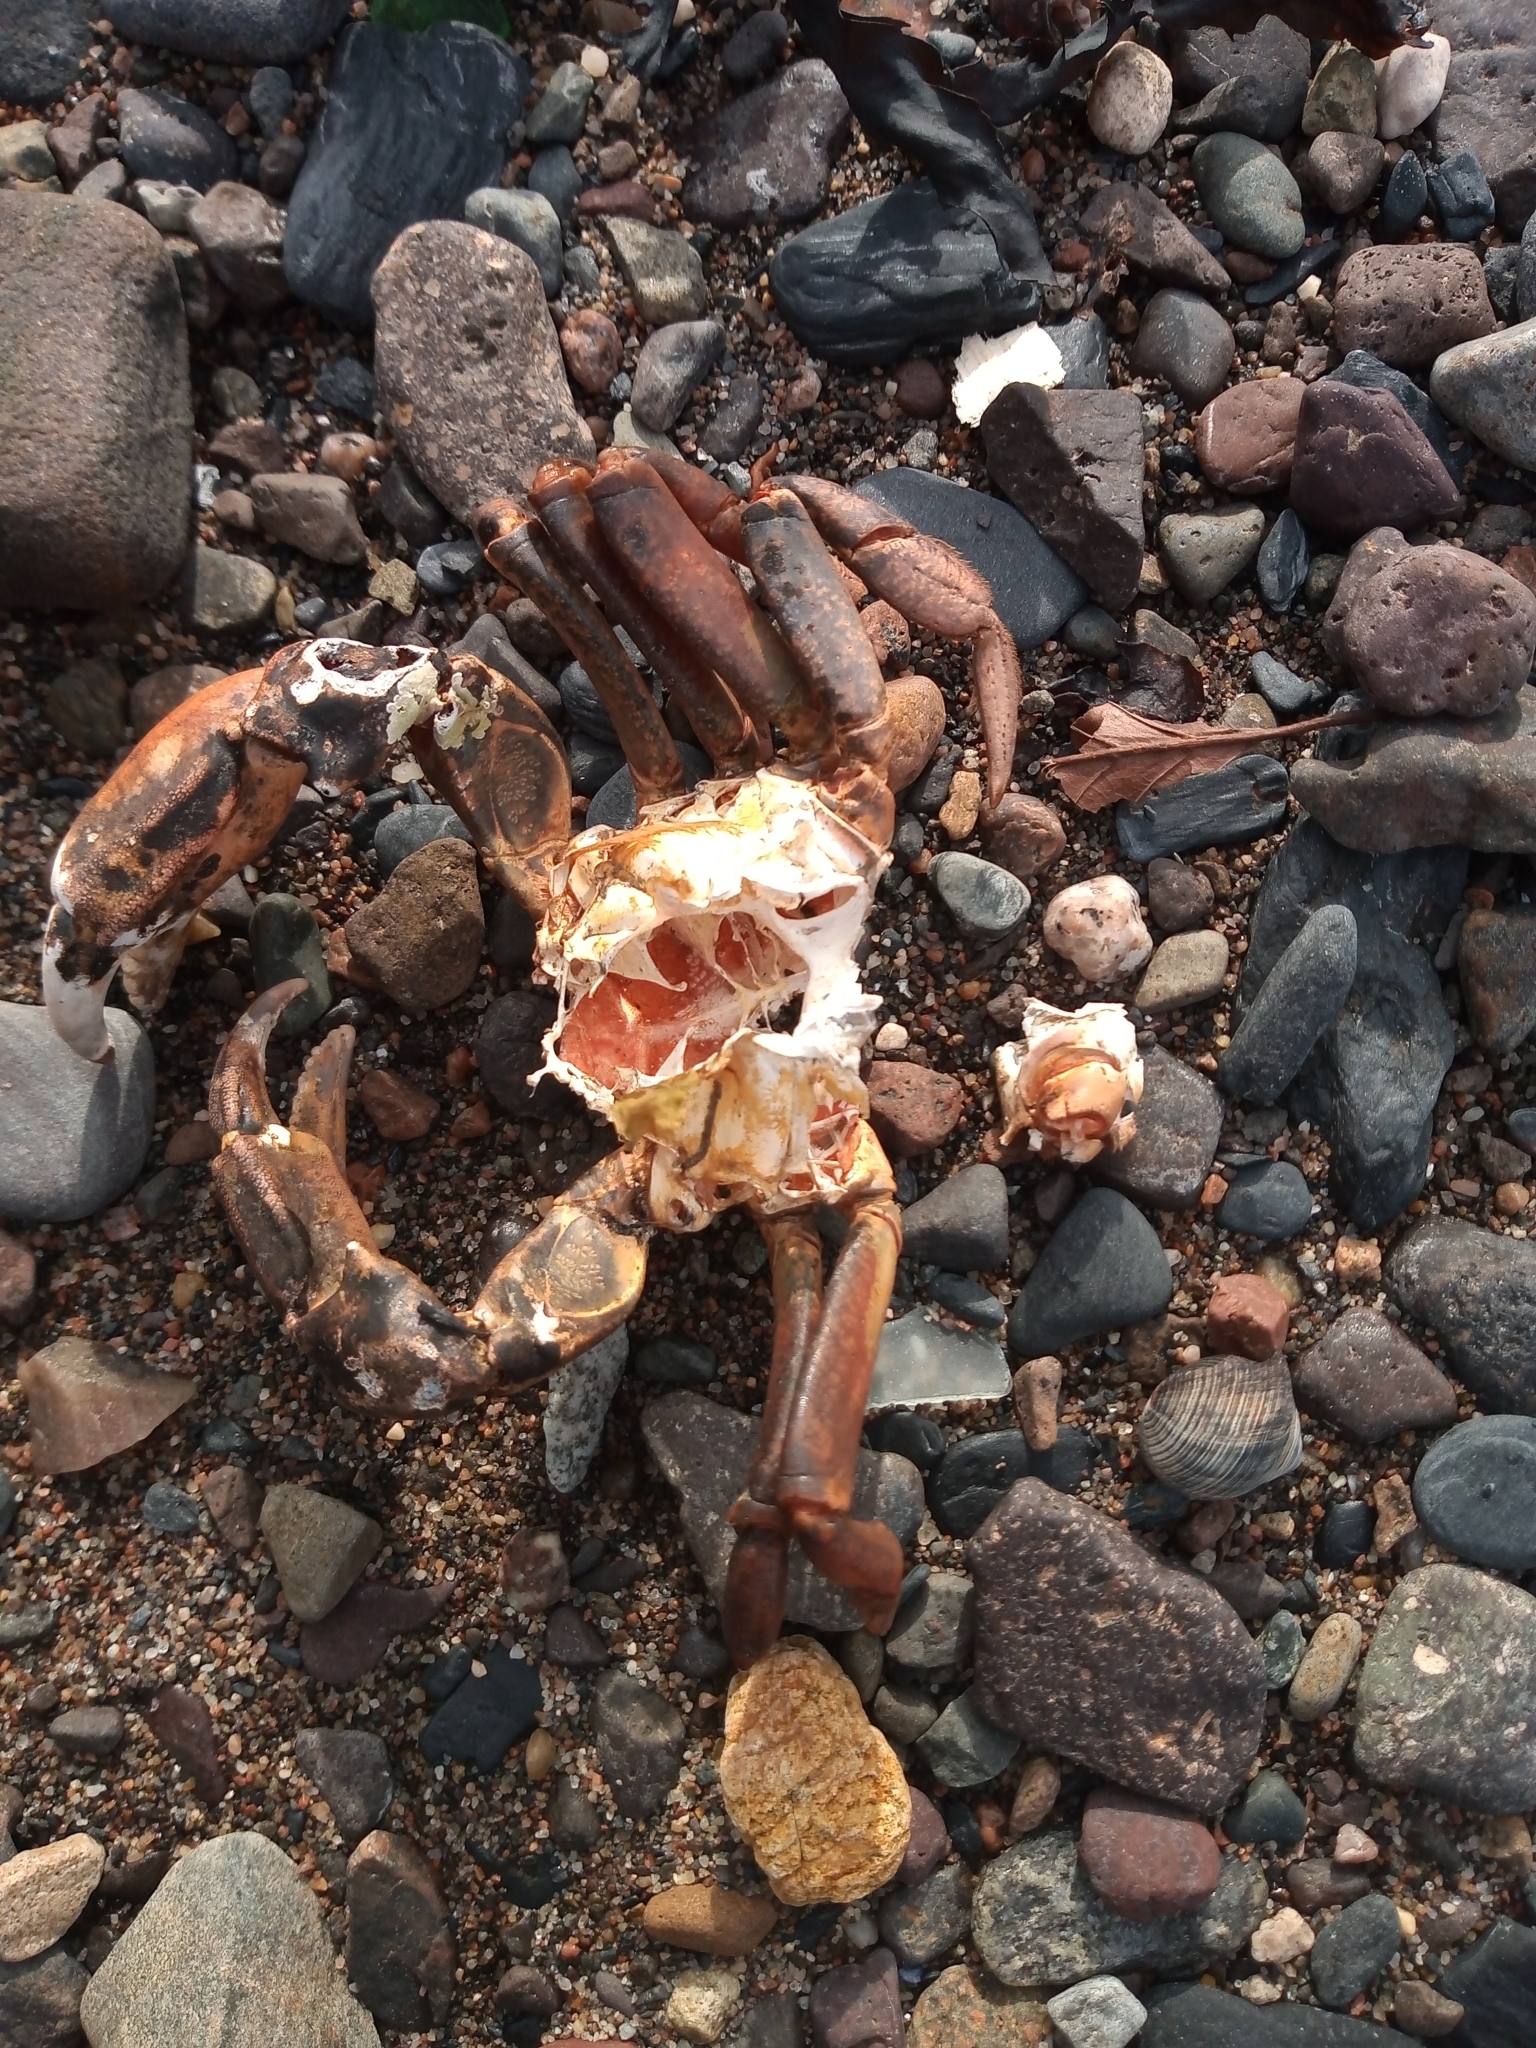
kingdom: Animalia
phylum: Arthropoda
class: Malacostraca
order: Decapoda
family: Carcinidae
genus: Carcinus
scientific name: Carcinus maenas
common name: European green crab
